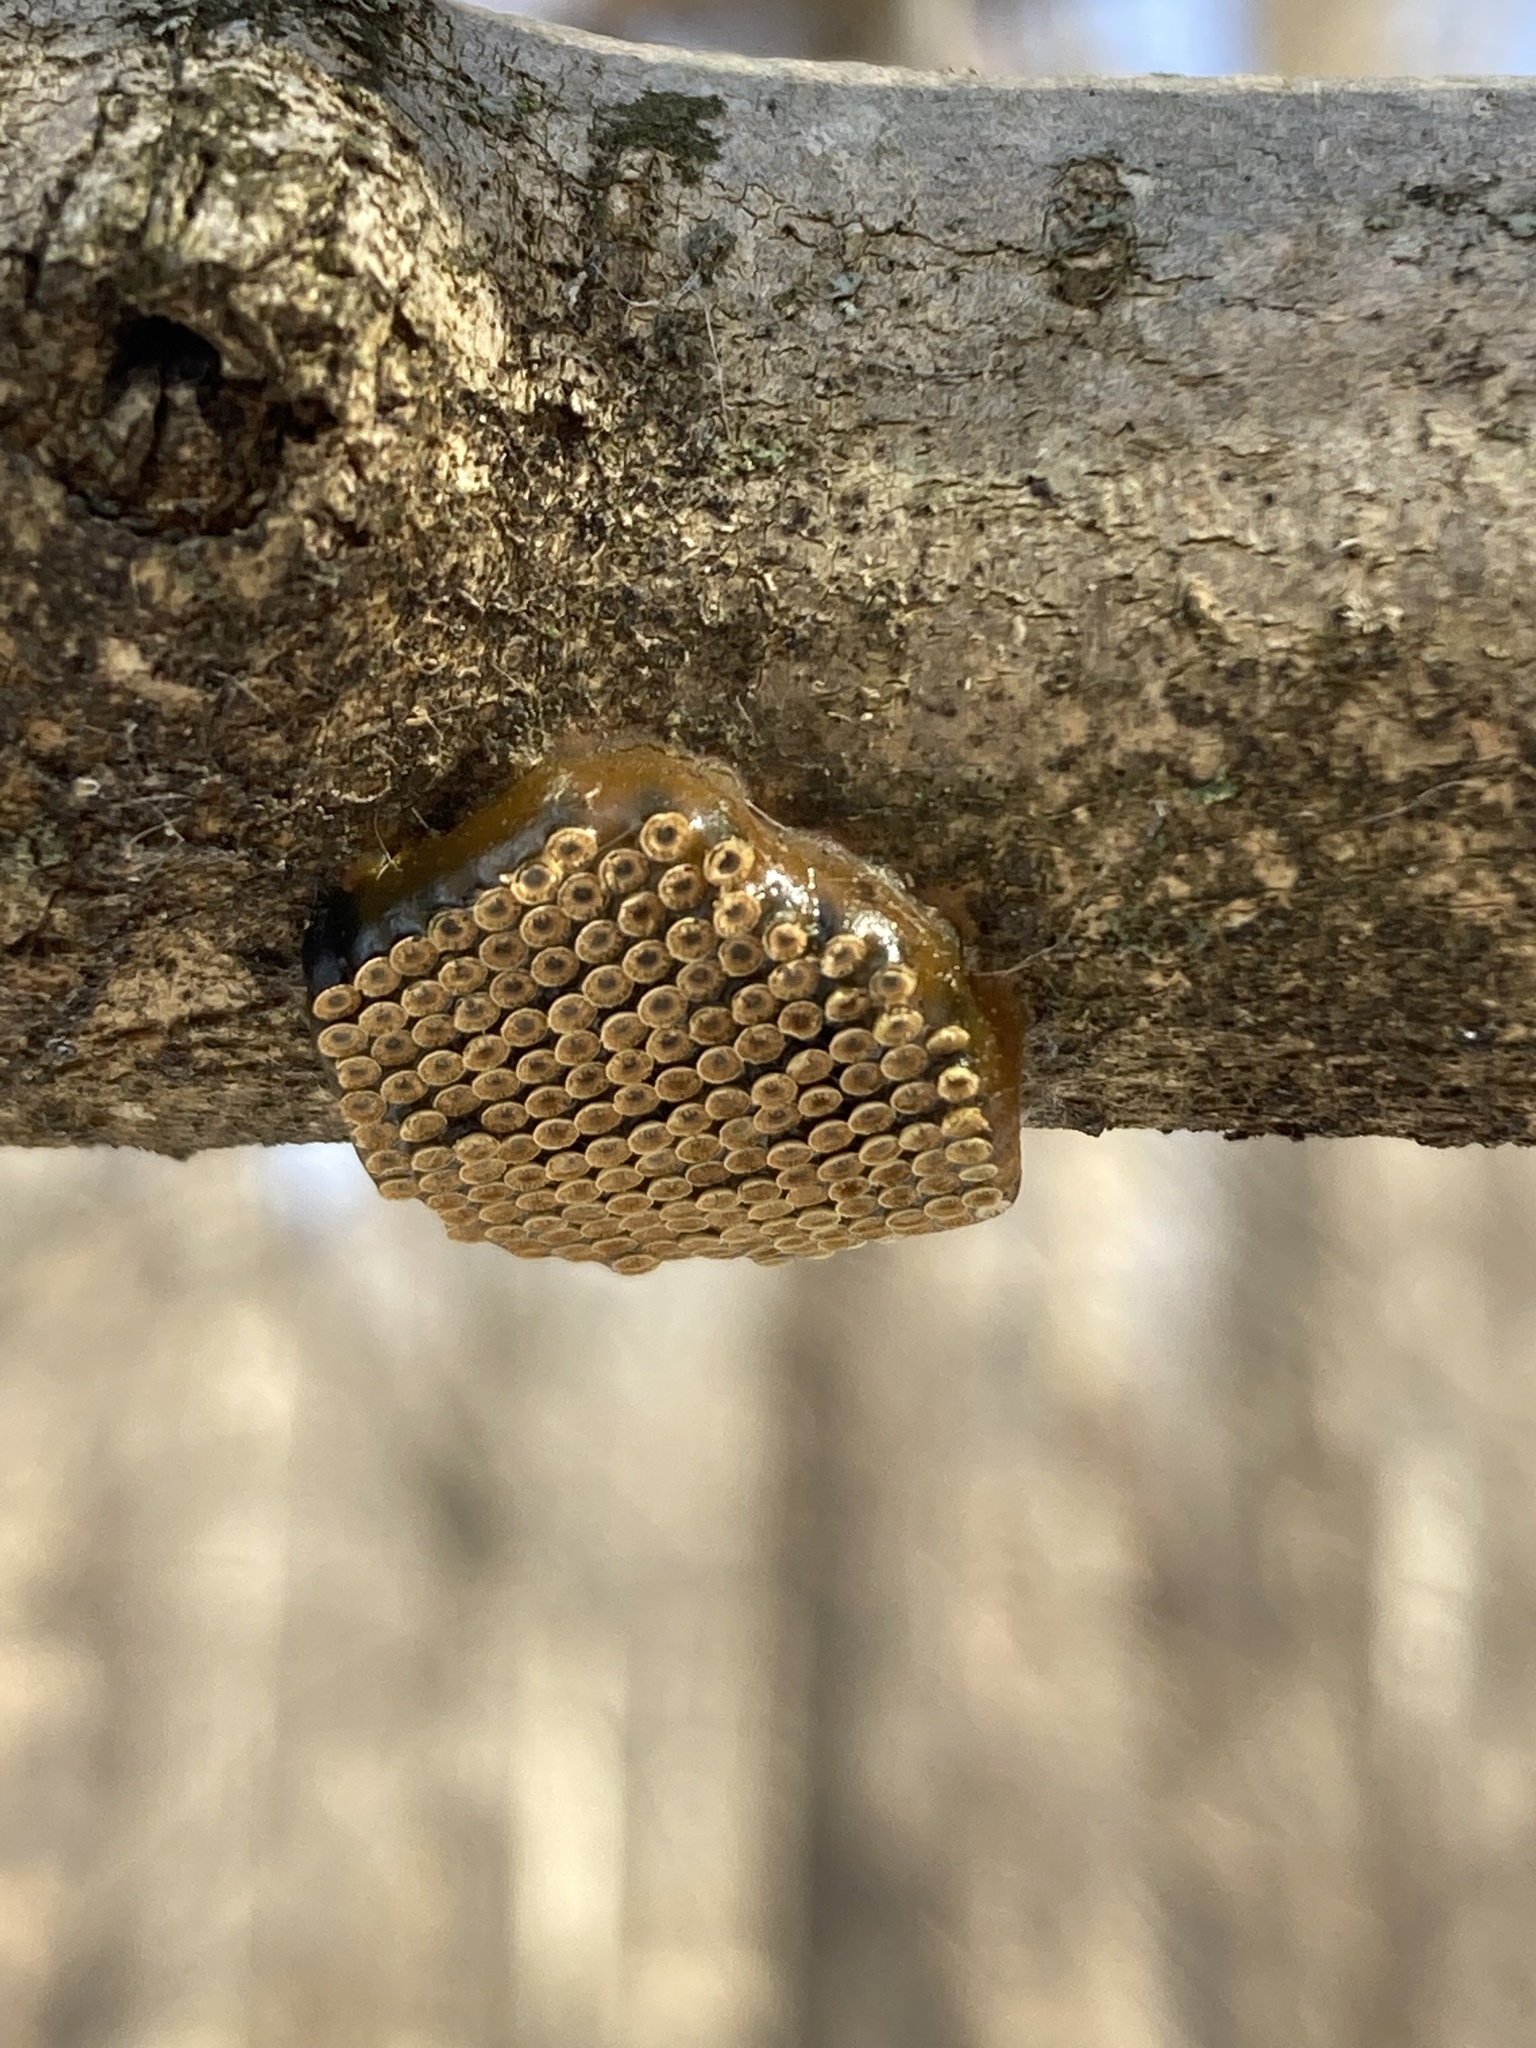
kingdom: Animalia
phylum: Arthropoda
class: Insecta
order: Hemiptera
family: Reduviidae
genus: Arilus
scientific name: Arilus cristatus
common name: North american wheel bug
